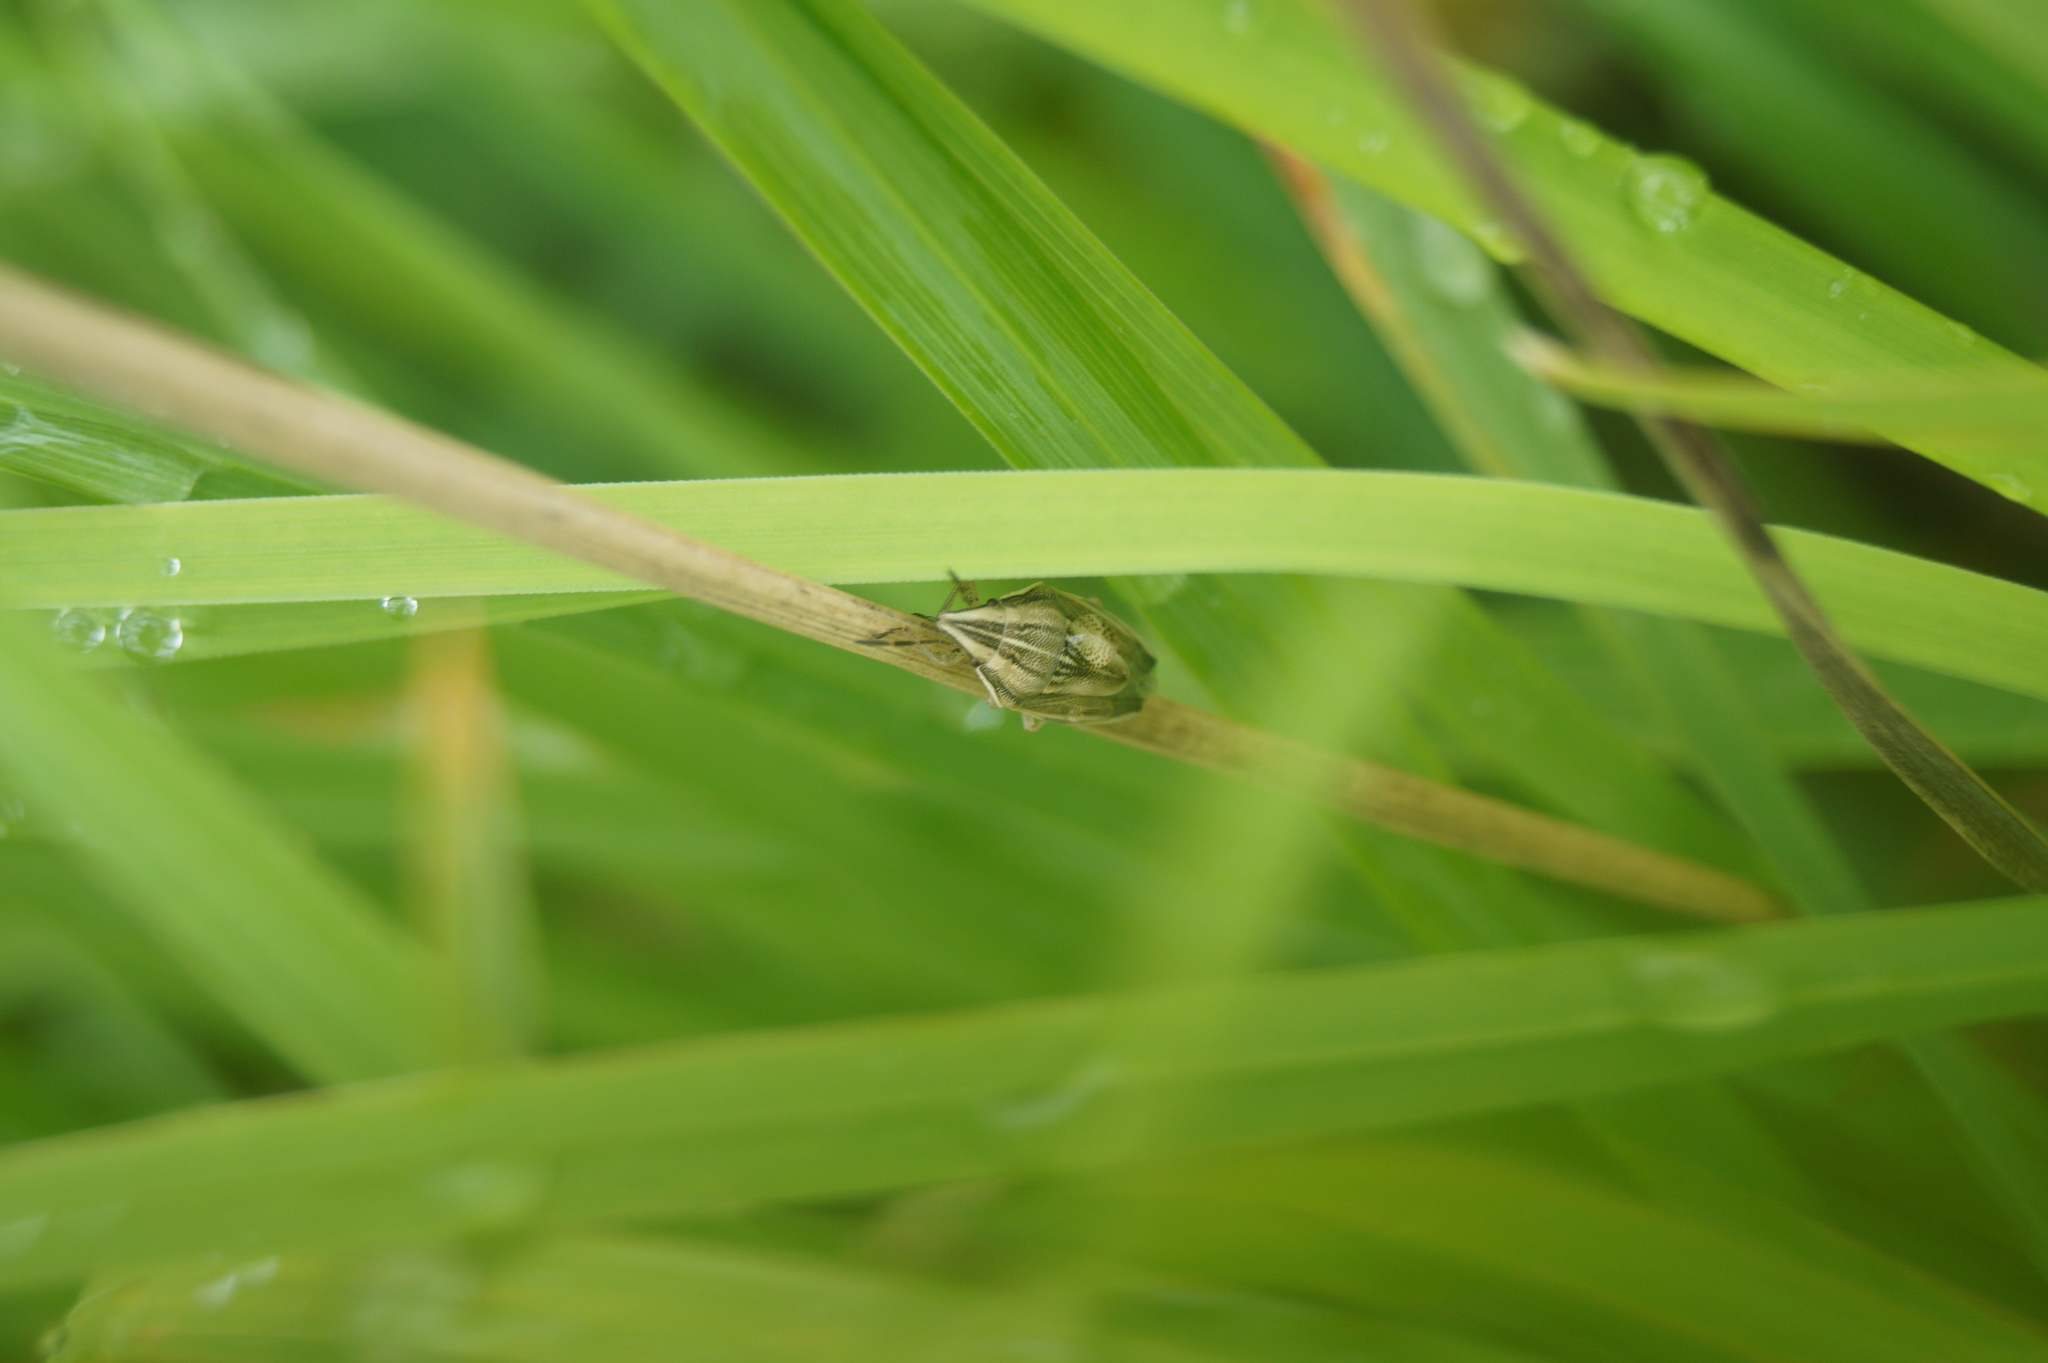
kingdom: Animalia
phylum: Arthropoda
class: Insecta
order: Hemiptera
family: Pentatomidae
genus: Aelia
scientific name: Aelia acuminata
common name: Bishop's mitre
